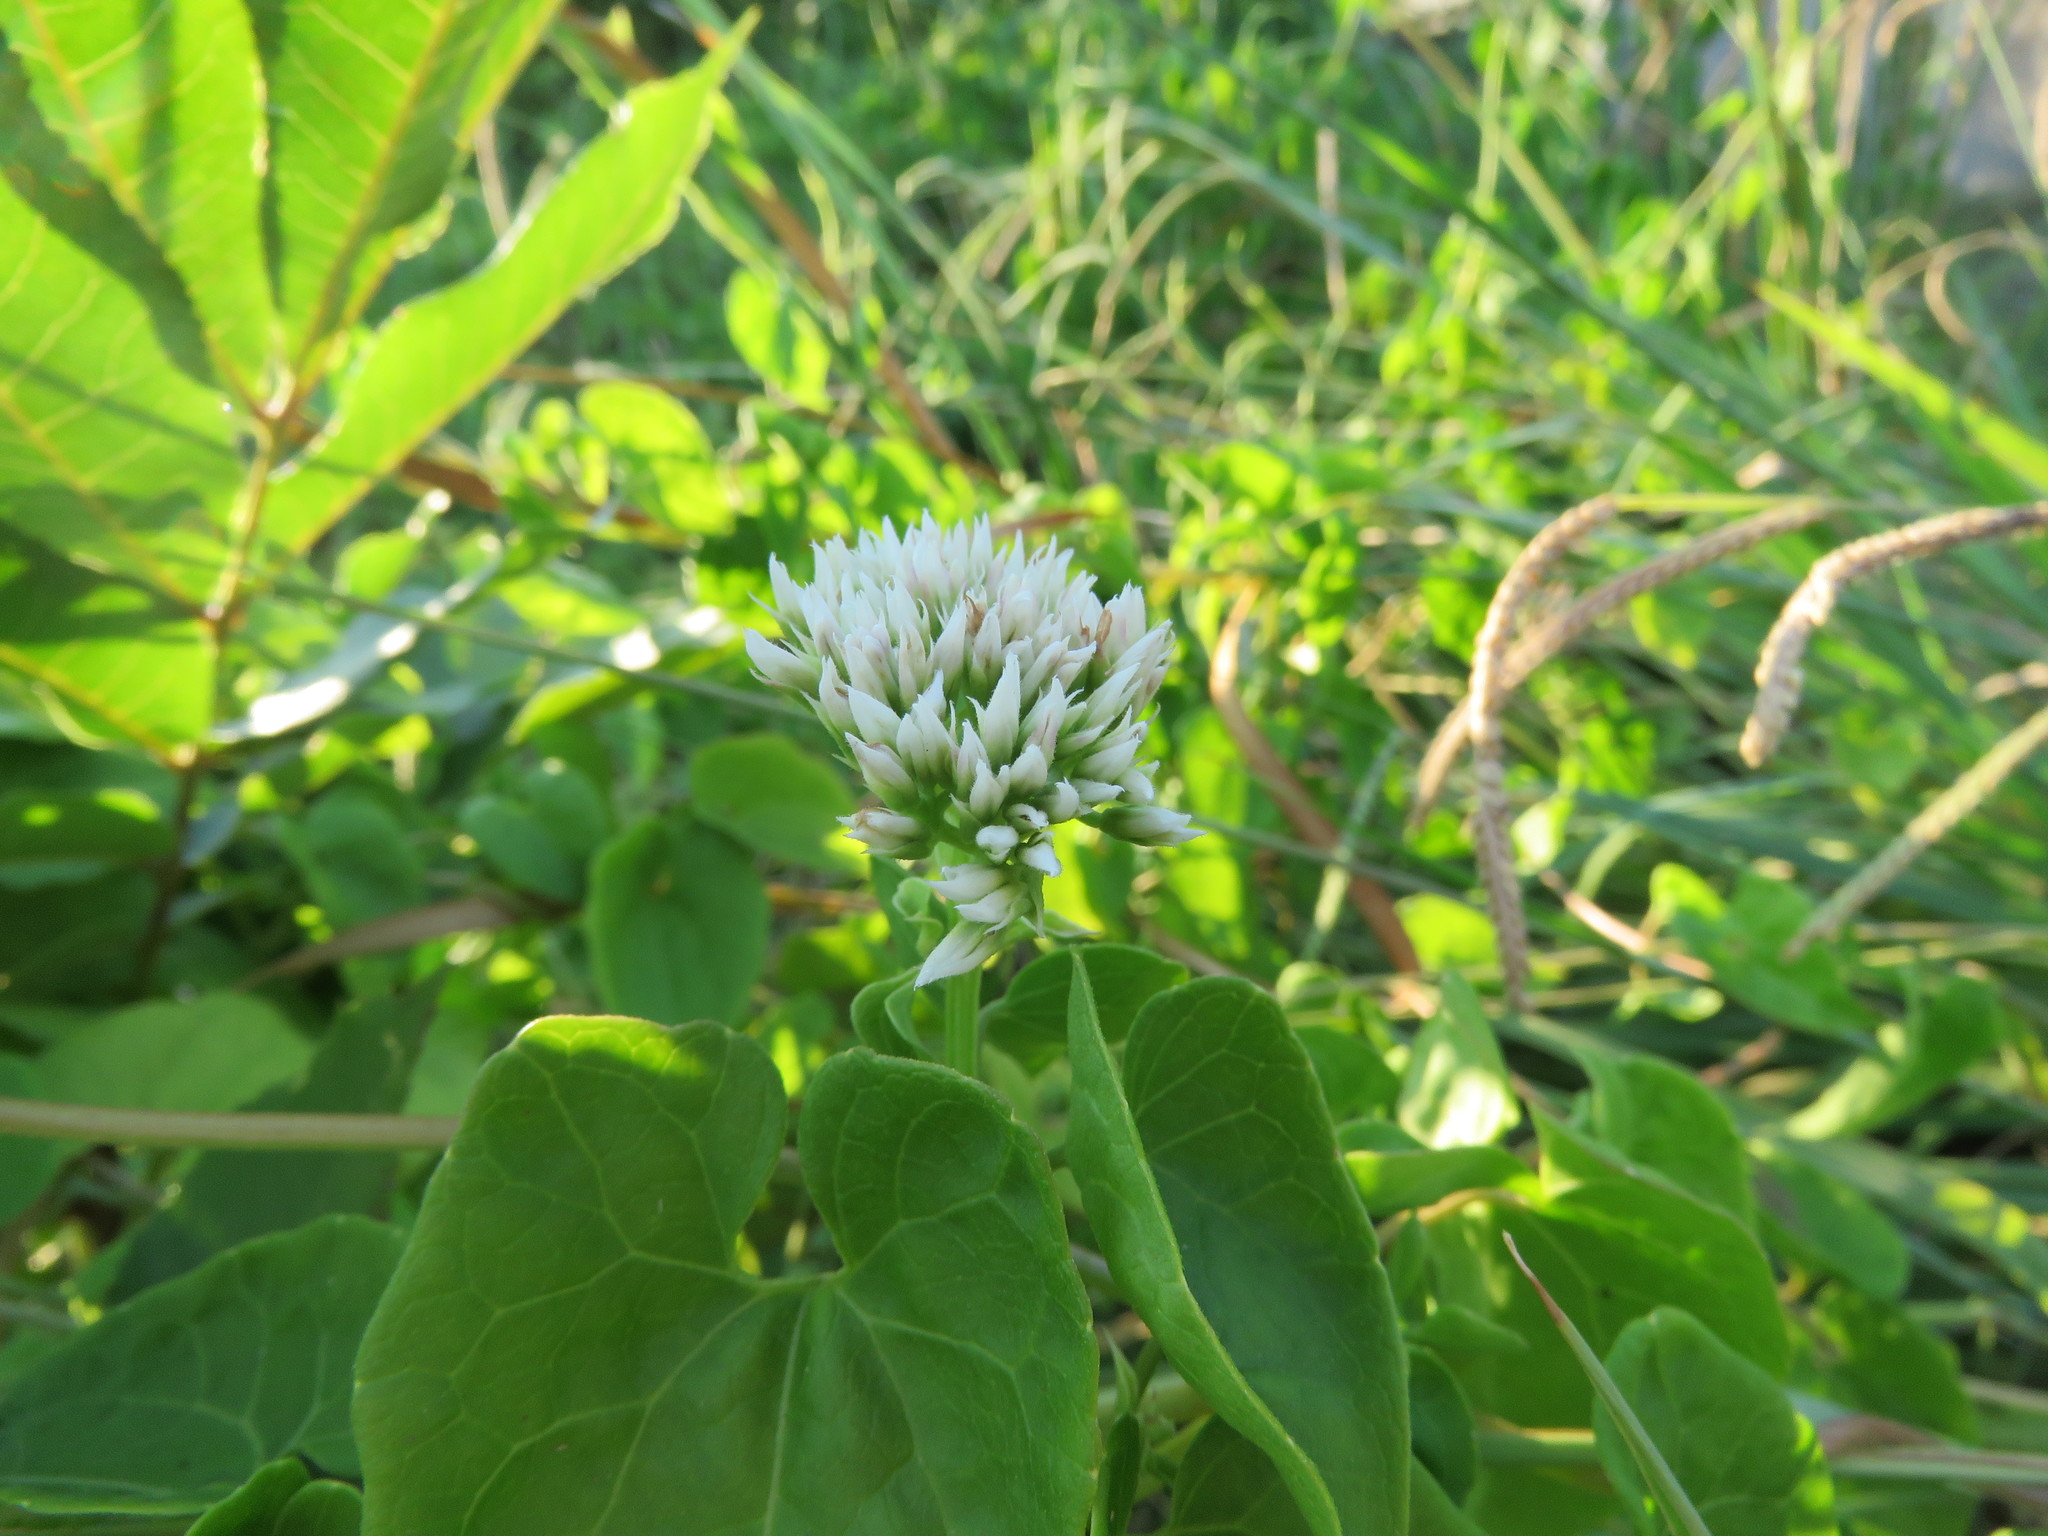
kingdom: Plantae
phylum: Tracheophyta
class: Magnoliopsida
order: Asterales
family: Asteraceae
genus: Mikania
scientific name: Mikania scandens
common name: Climbing hempvine
